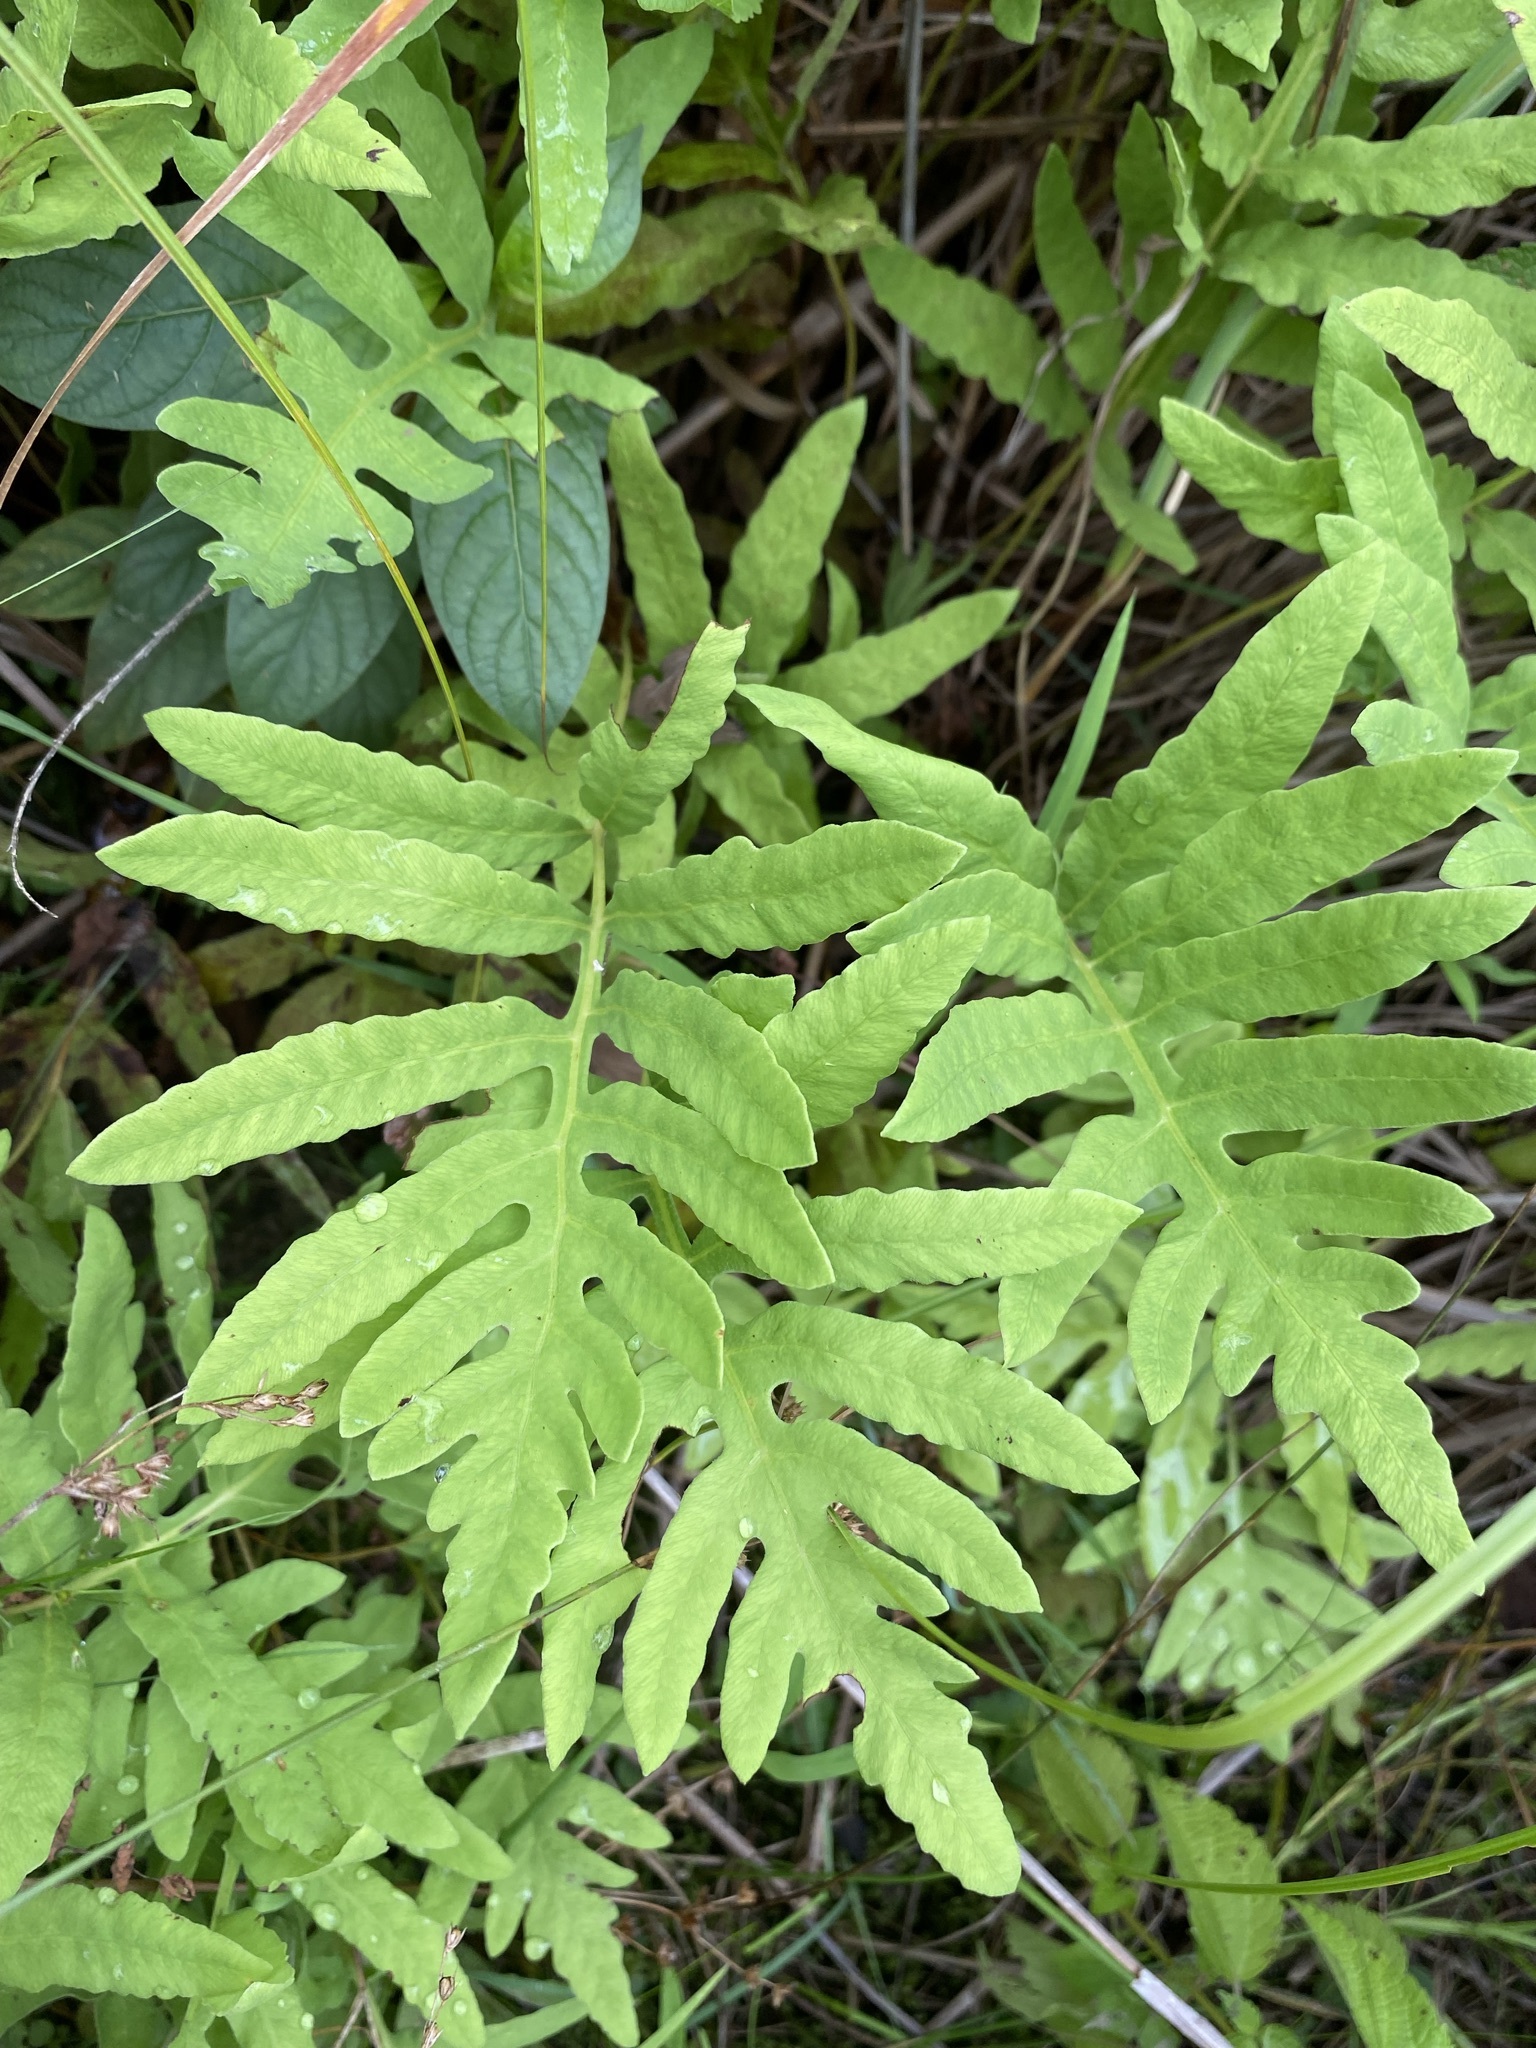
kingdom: Plantae
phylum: Tracheophyta
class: Polypodiopsida
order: Polypodiales
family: Onocleaceae
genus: Onoclea
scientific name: Onoclea sensibilis
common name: Sensitive fern
